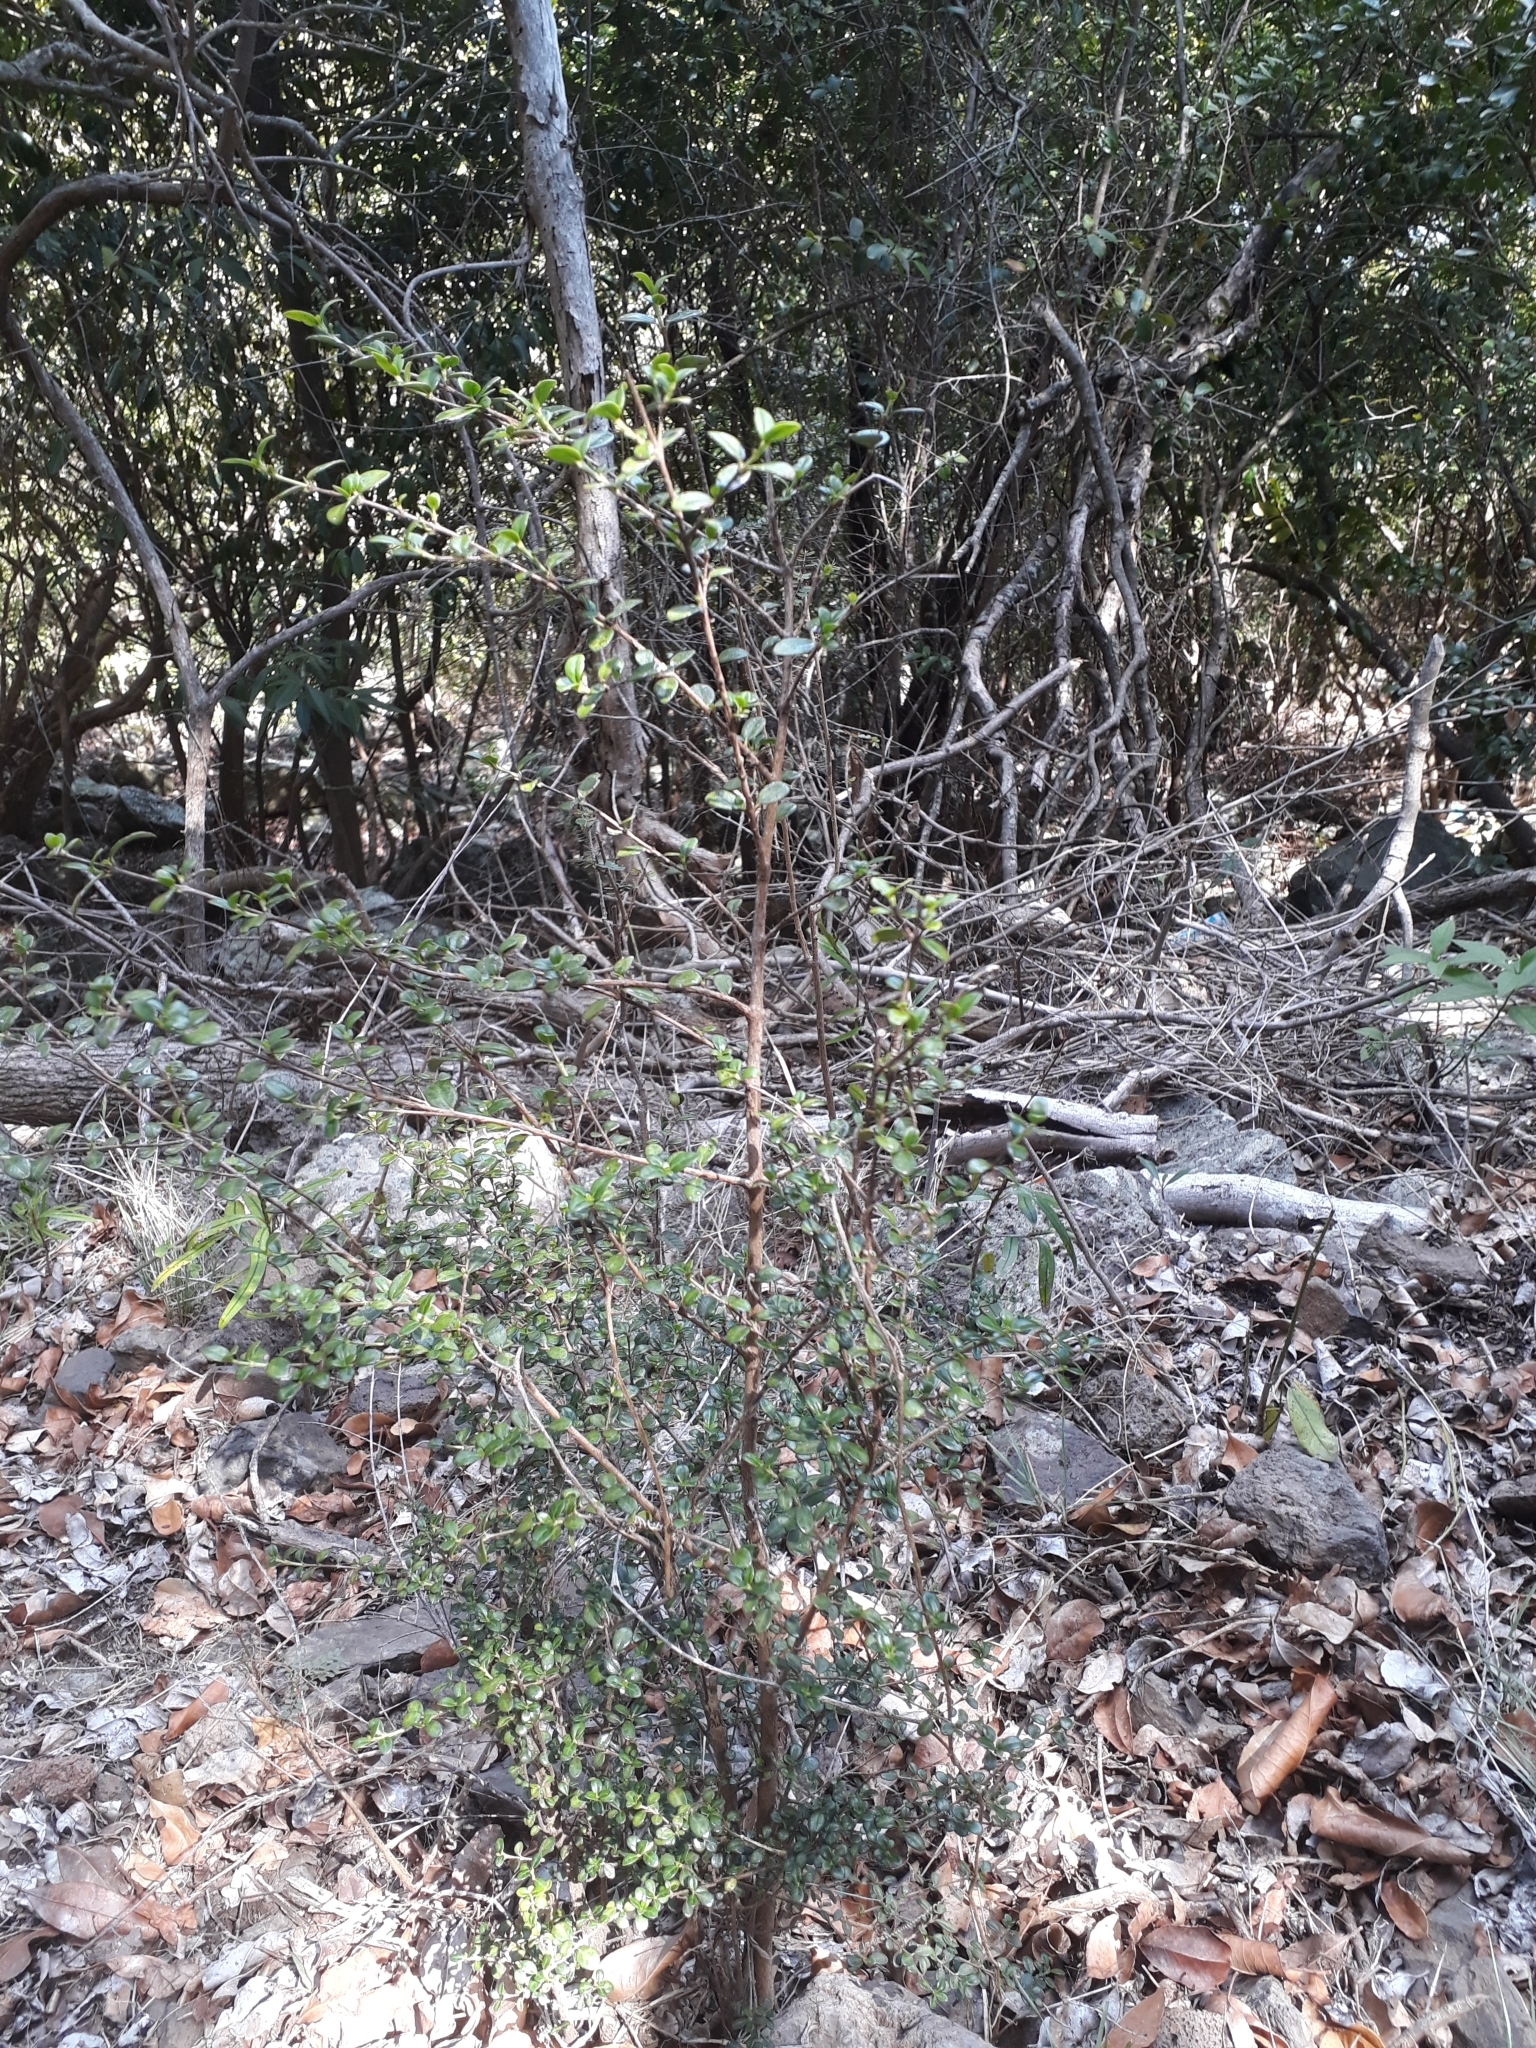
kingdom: Plantae
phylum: Tracheophyta
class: Magnoliopsida
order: Gentianales
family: Rubiaceae
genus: Fernelia
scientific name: Fernelia buxifolia
